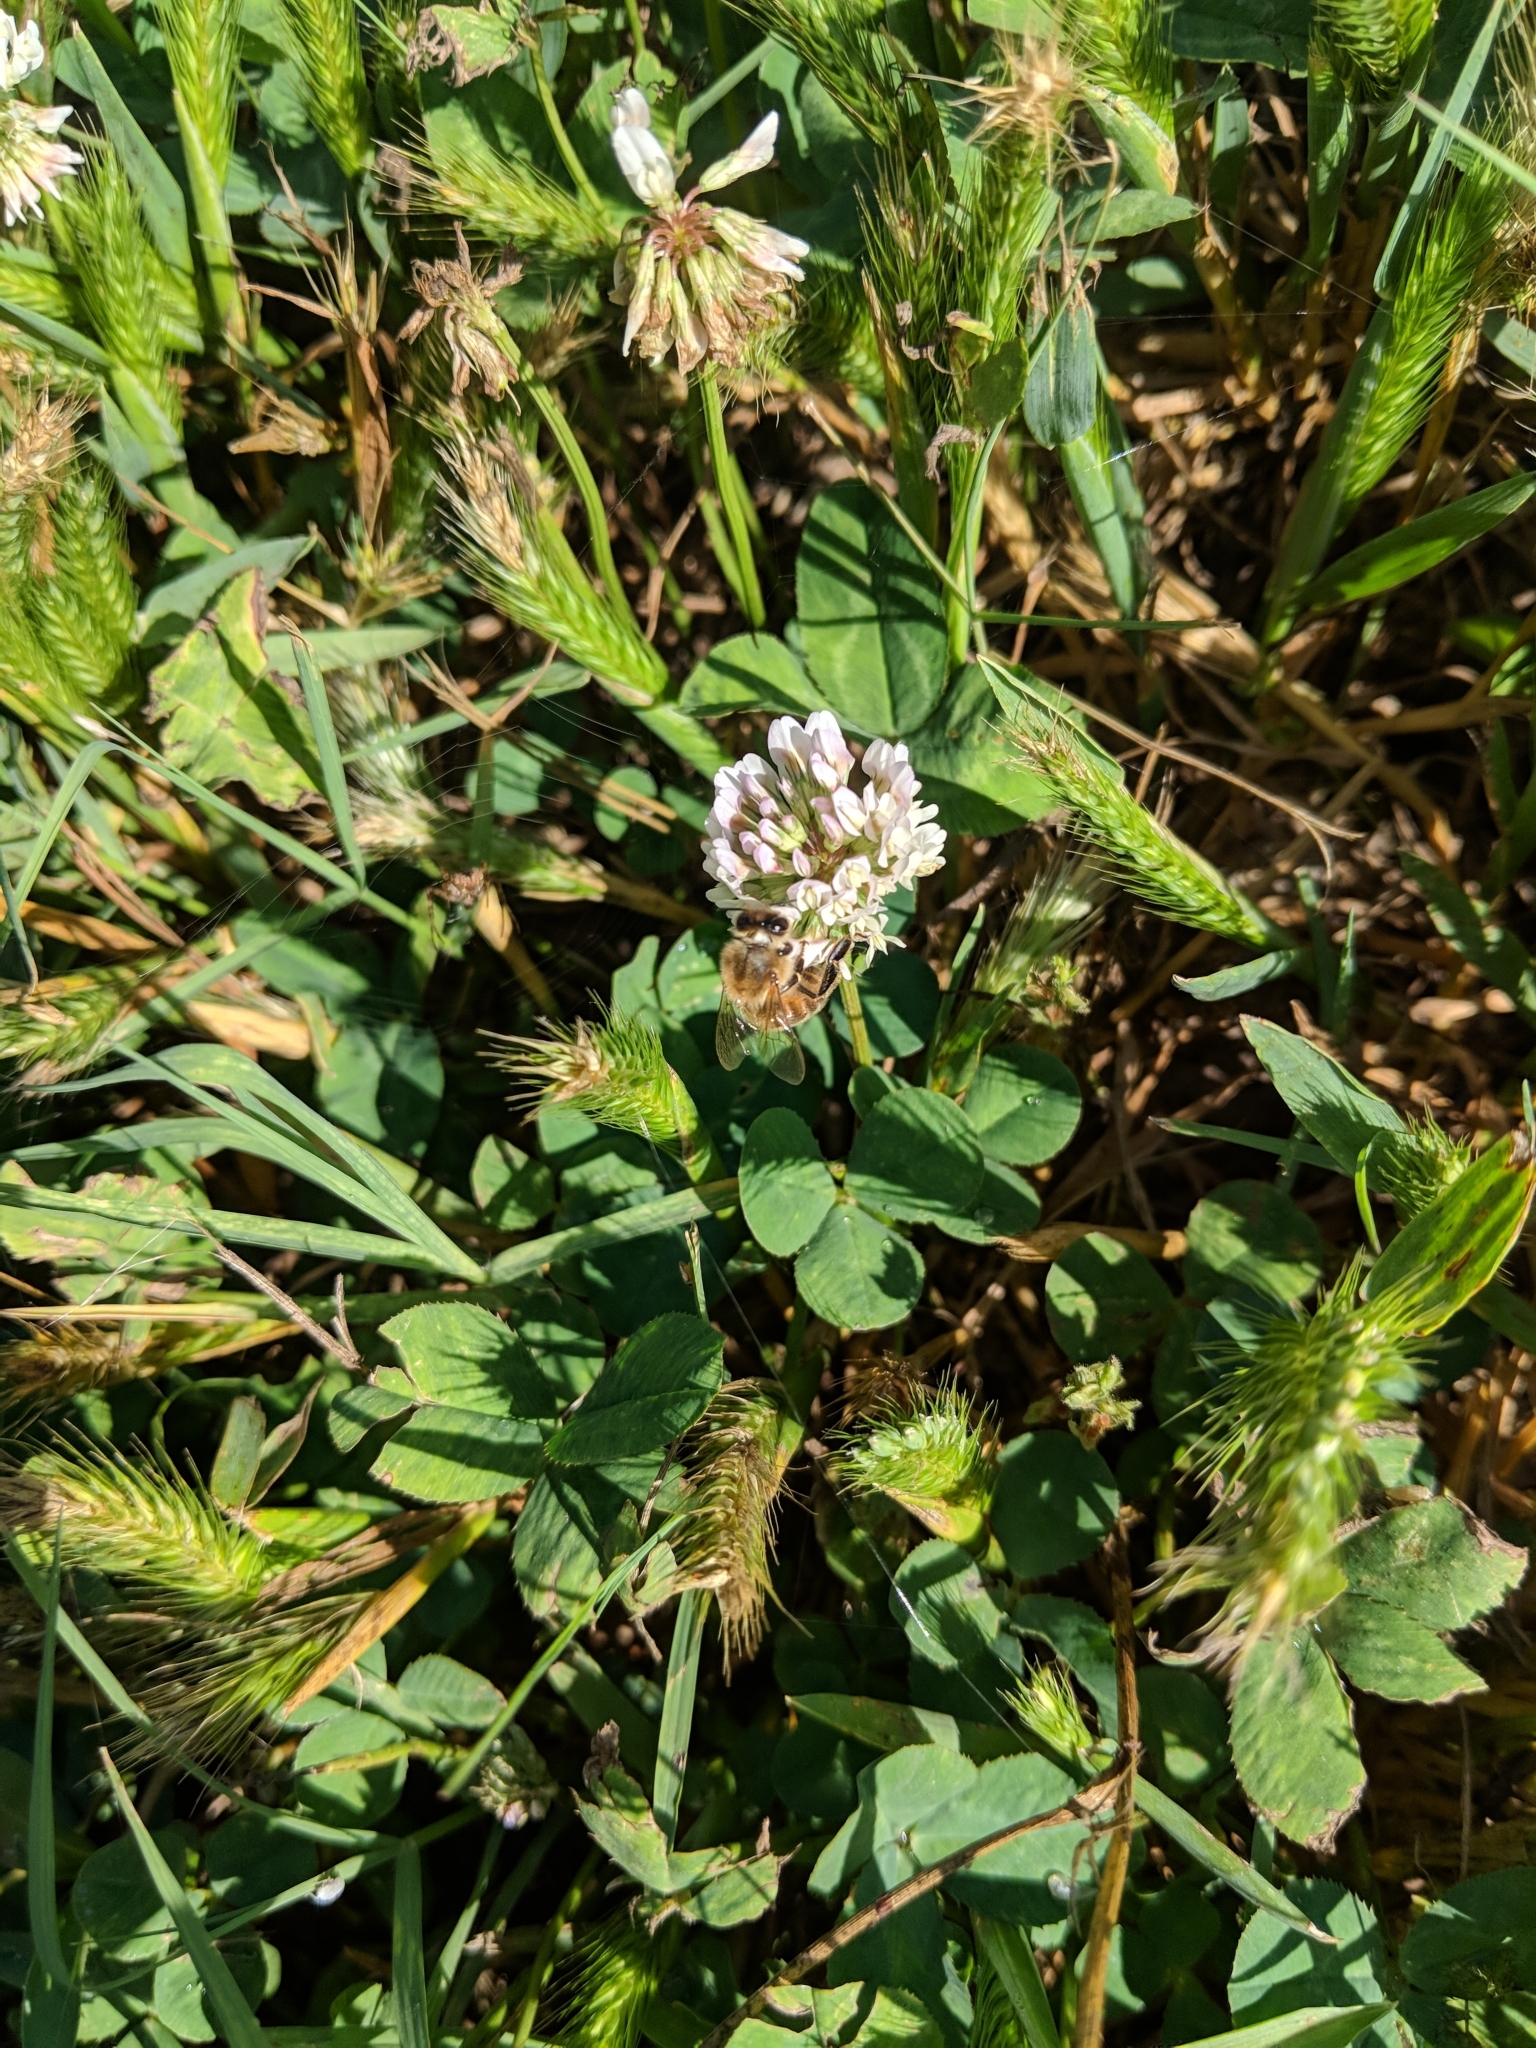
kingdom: Animalia
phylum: Arthropoda
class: Insecta
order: Hymenoptera
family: Apidae
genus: Apis
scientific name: Apis mellifera
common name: Honey bee
